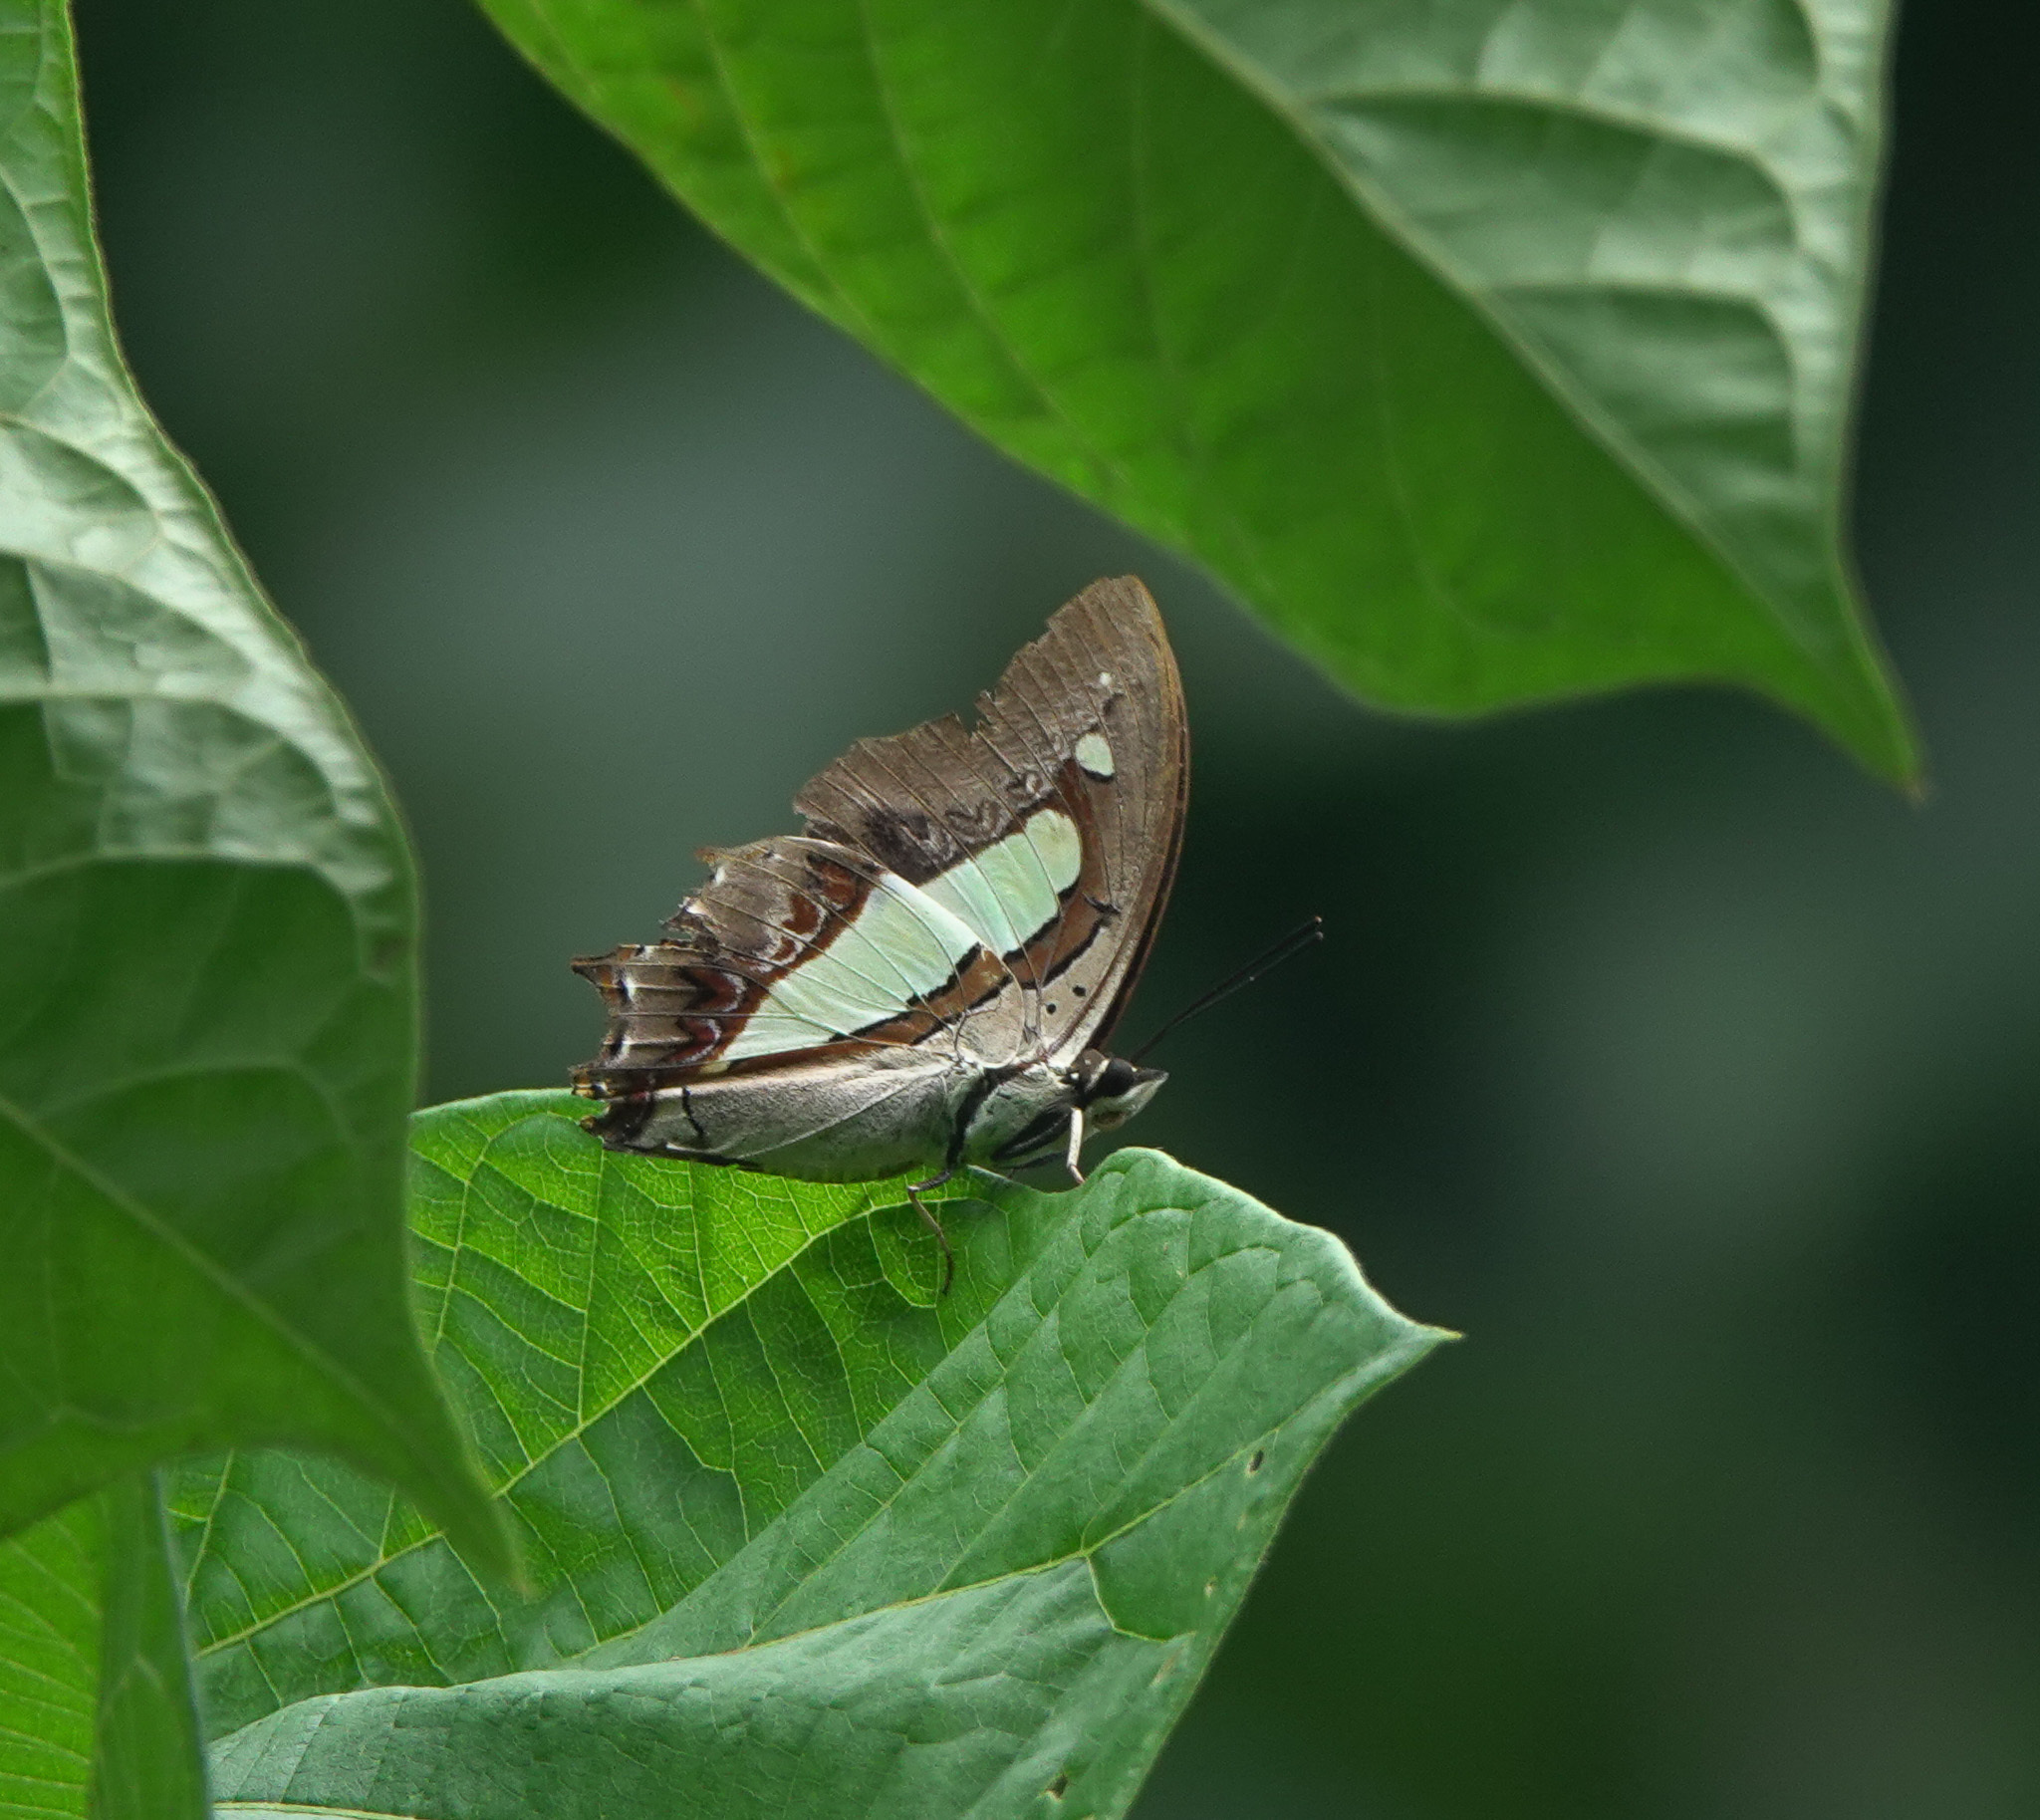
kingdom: Animalia
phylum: Arthropoda
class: Insecta
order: Lepidoptera
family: Nymphalidae
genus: Polyura
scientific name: Polyura
